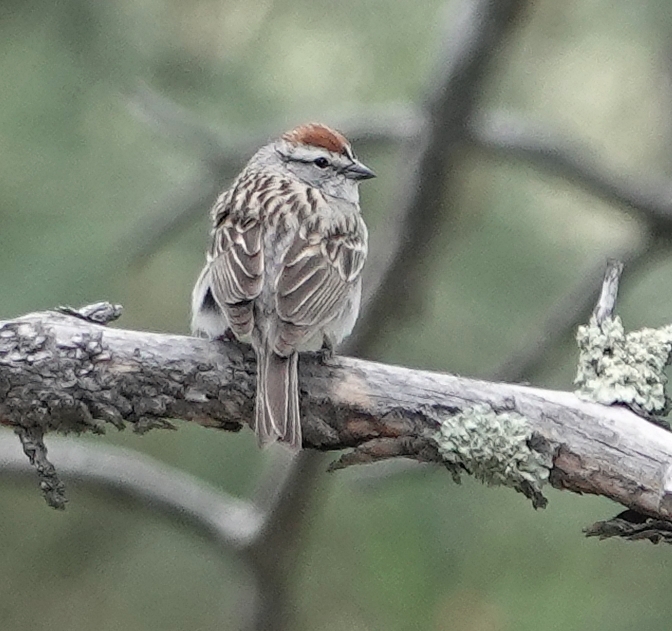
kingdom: Animalia
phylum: Chordata
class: Aves
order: Passeriformes
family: Passerellidae
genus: Spizella
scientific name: Spizella passerina
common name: Chipping sparrow
